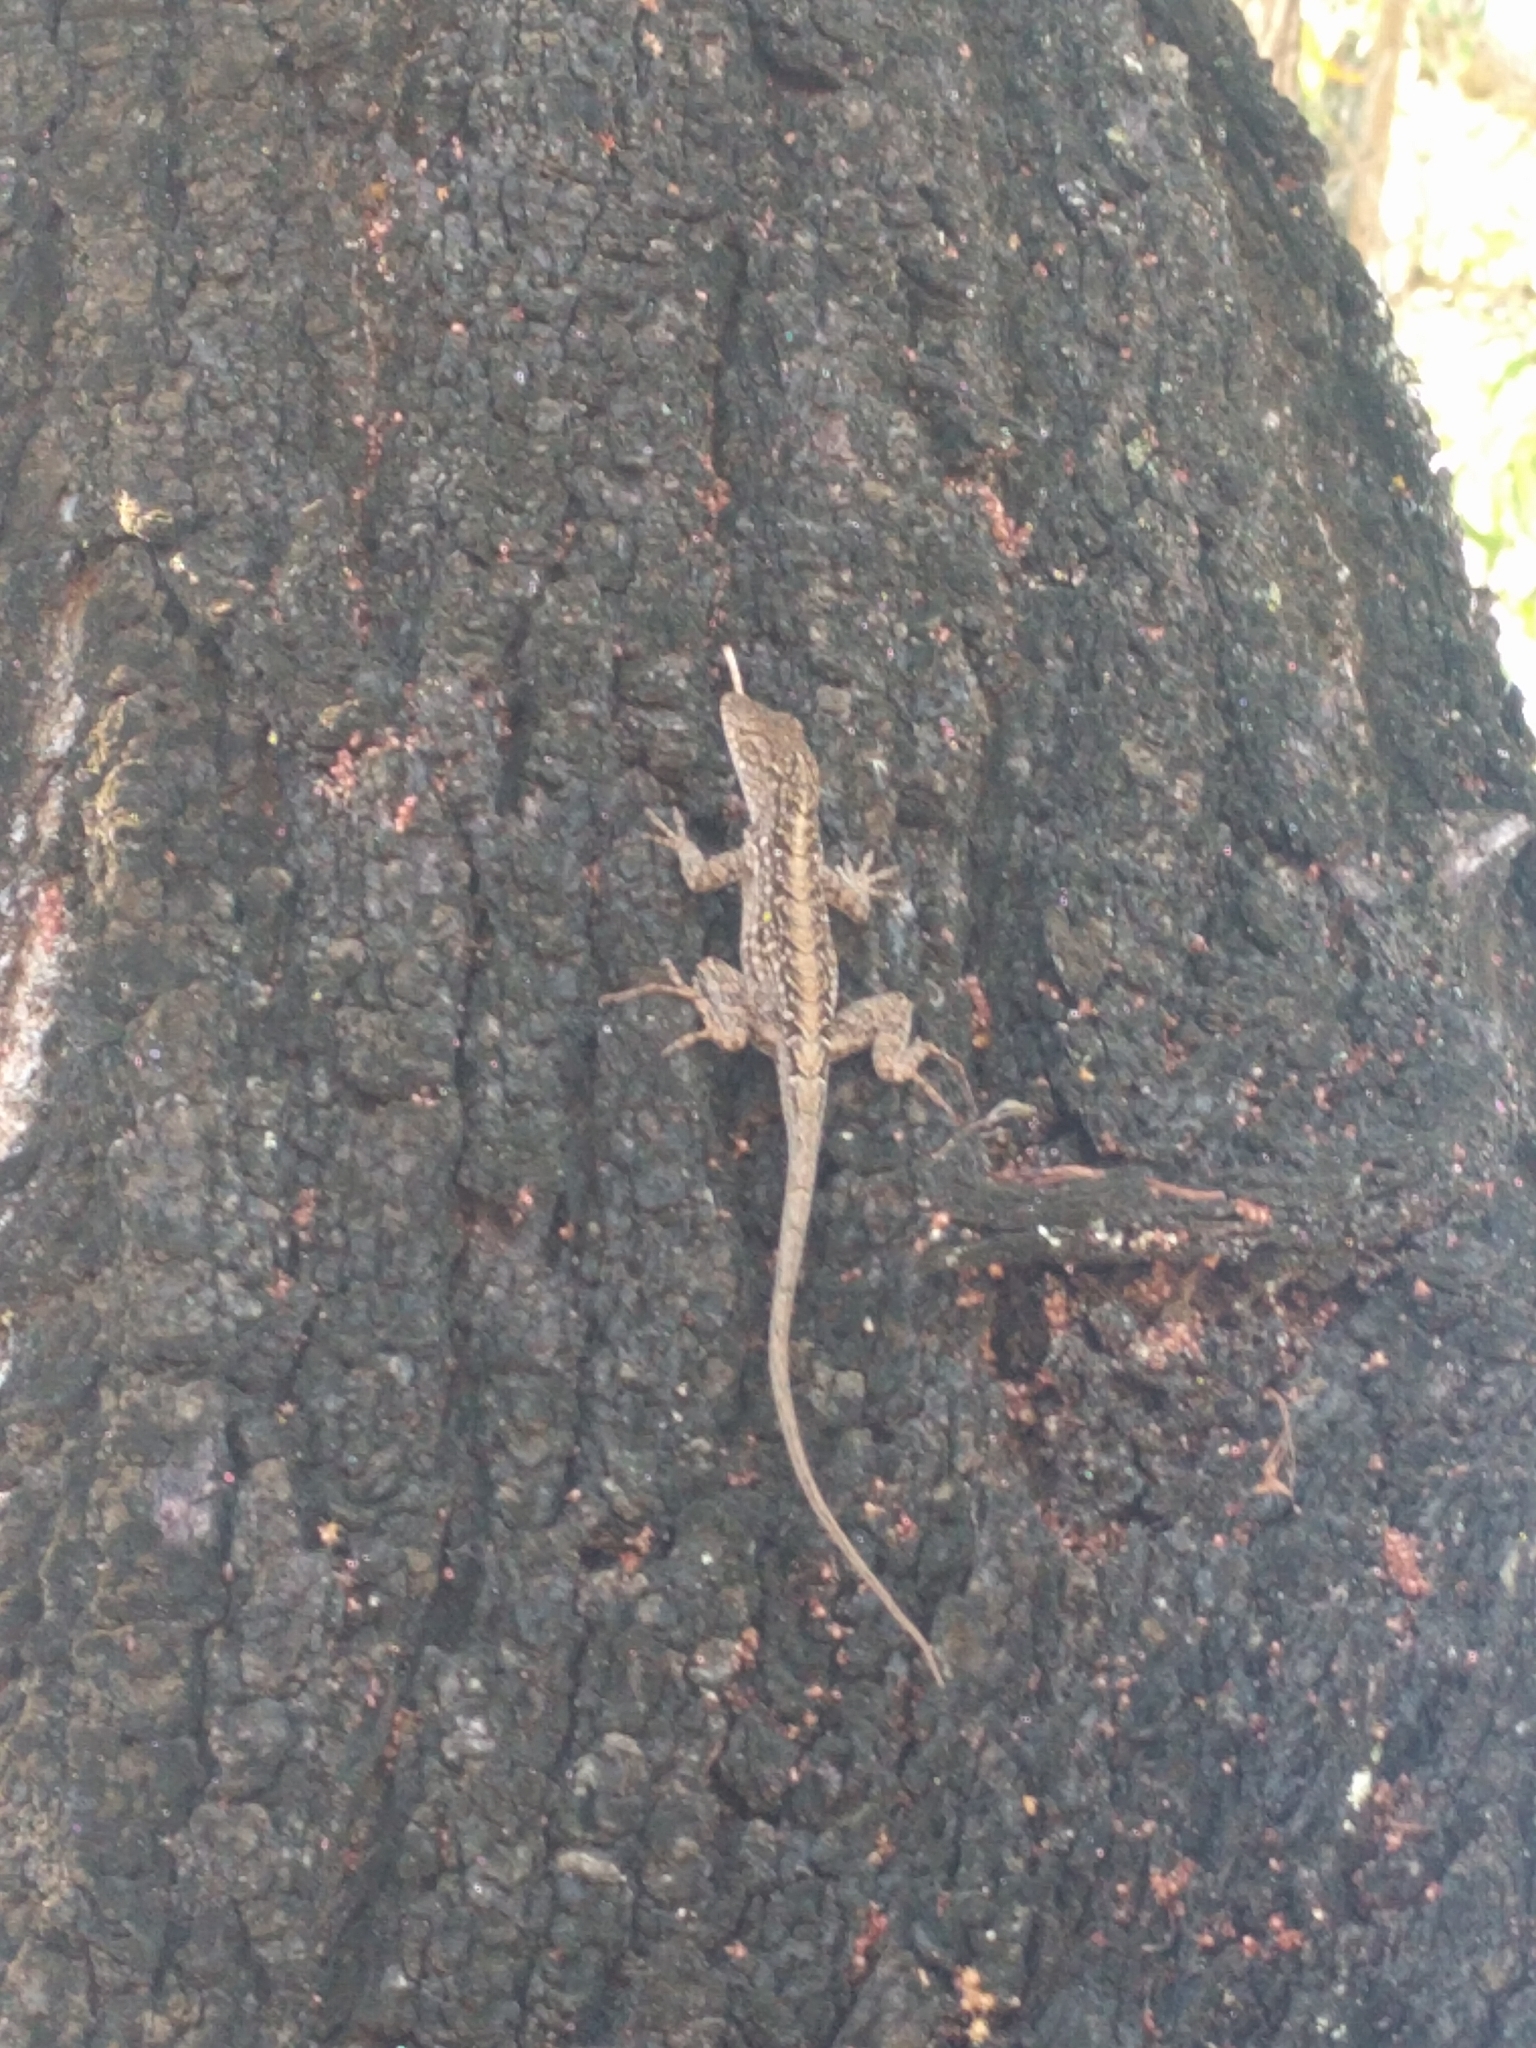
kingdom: Animalia
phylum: Chordata
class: Squamata
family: Dactyloidae
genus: Anolis
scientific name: Anolis sagrei
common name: Brown anole
